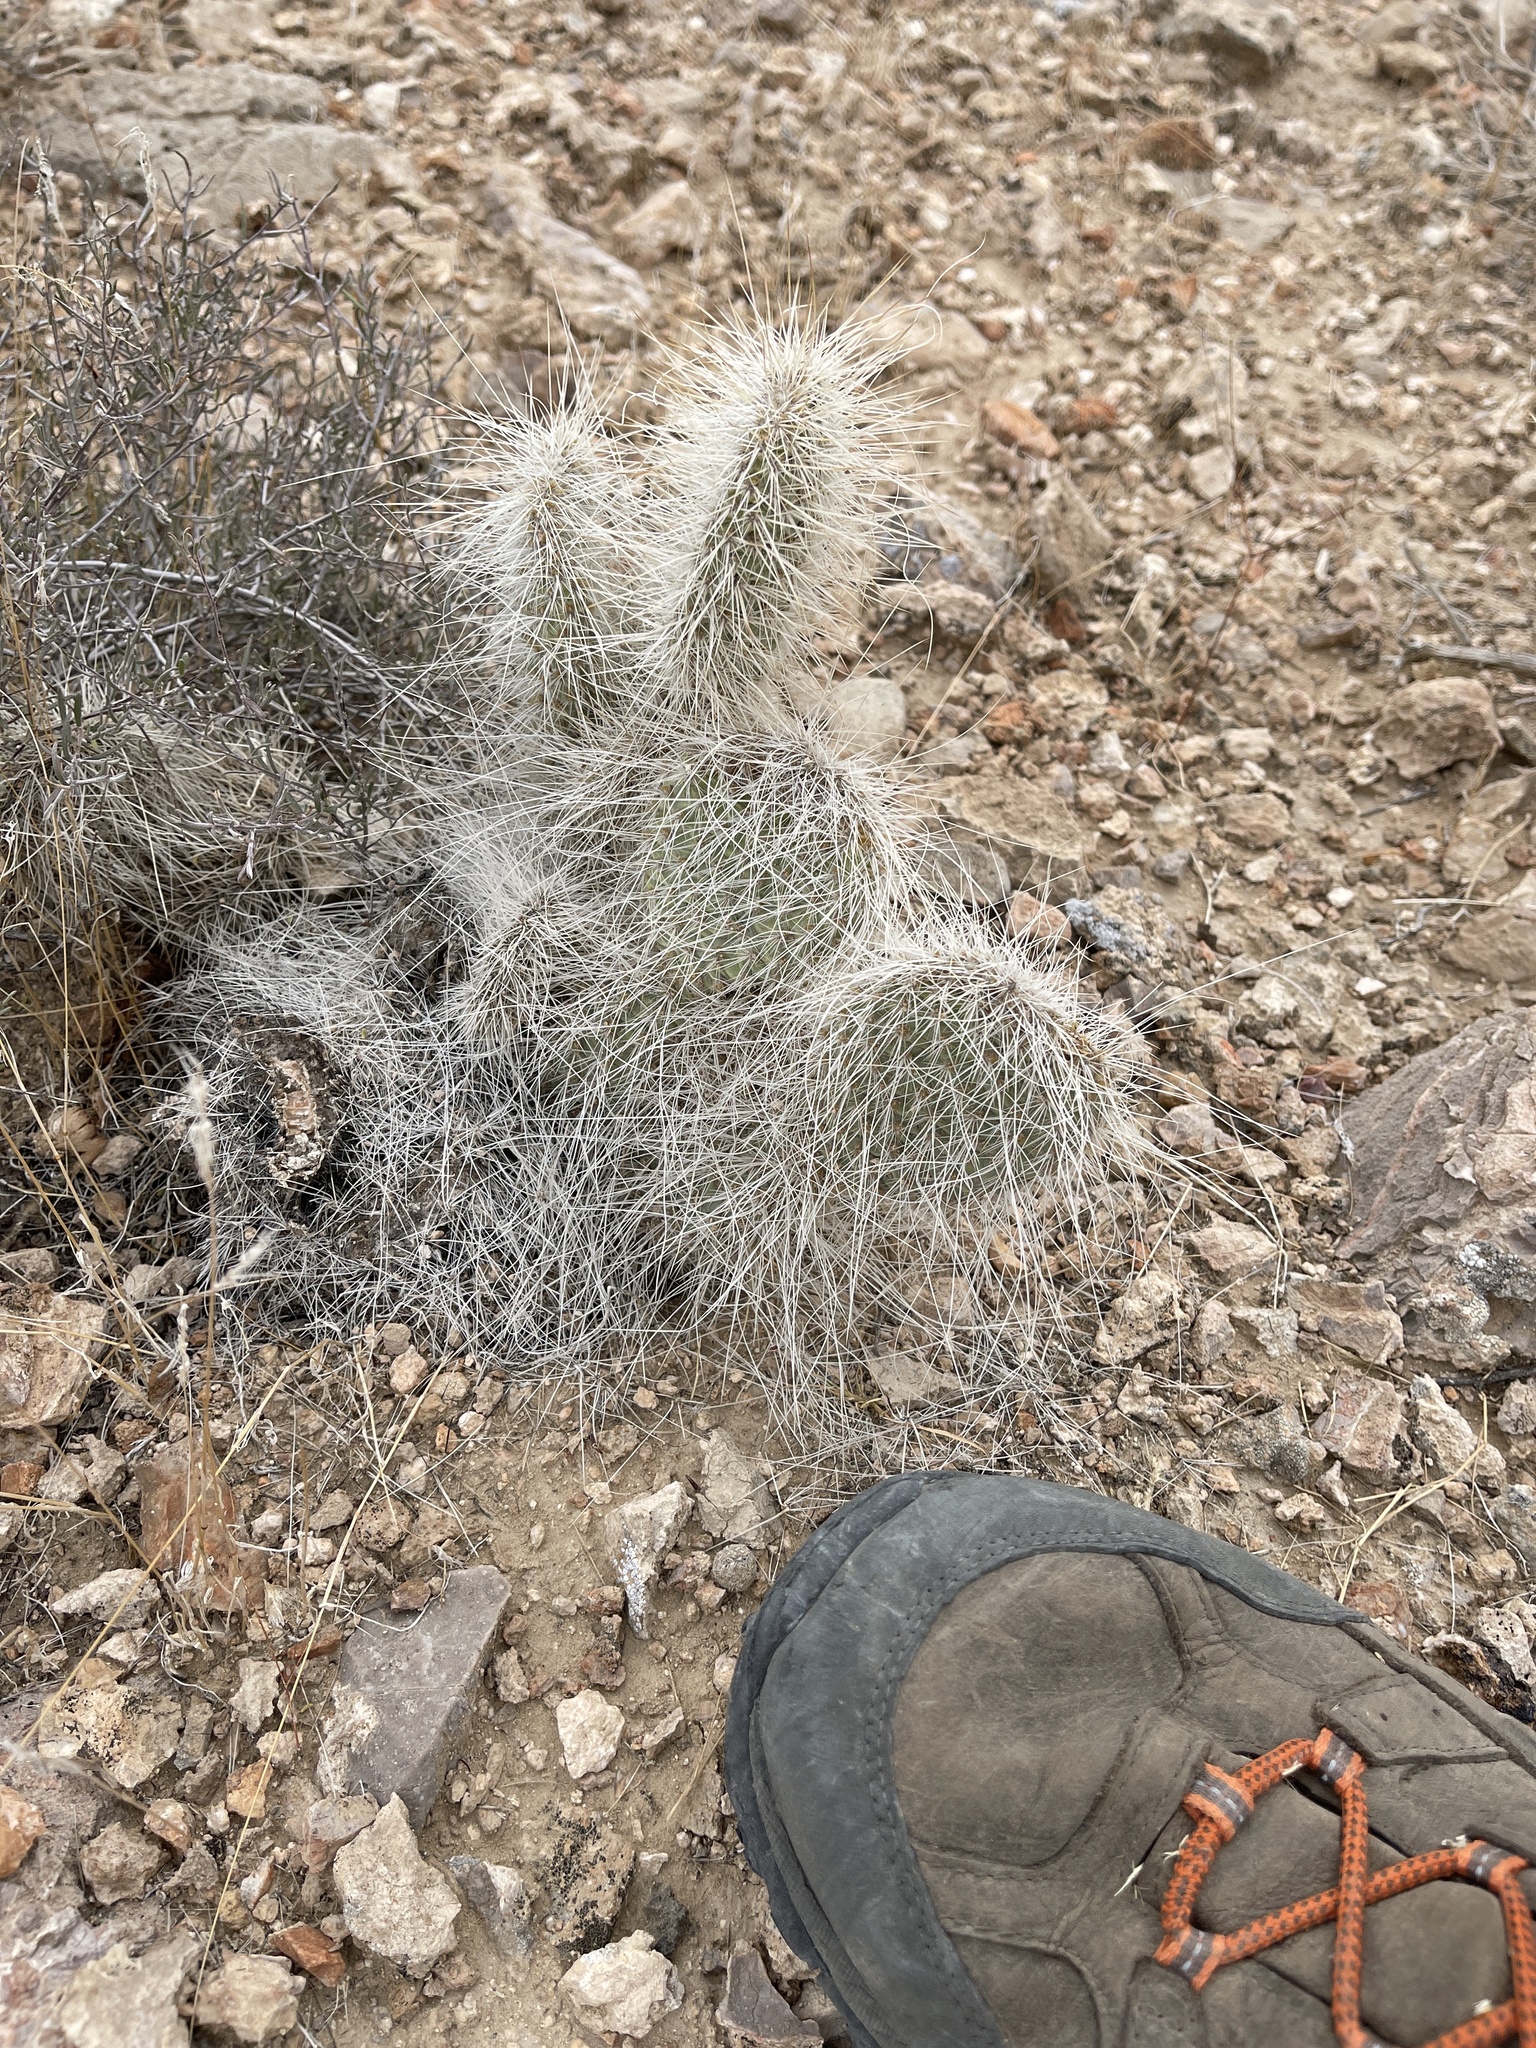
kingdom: Plantae
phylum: Tracheophyta
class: Magnoliopsida
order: Caryophyllales
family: Cactaceae
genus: Opuntia
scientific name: Opuntia polyacantha
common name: Plains prickly-pear
